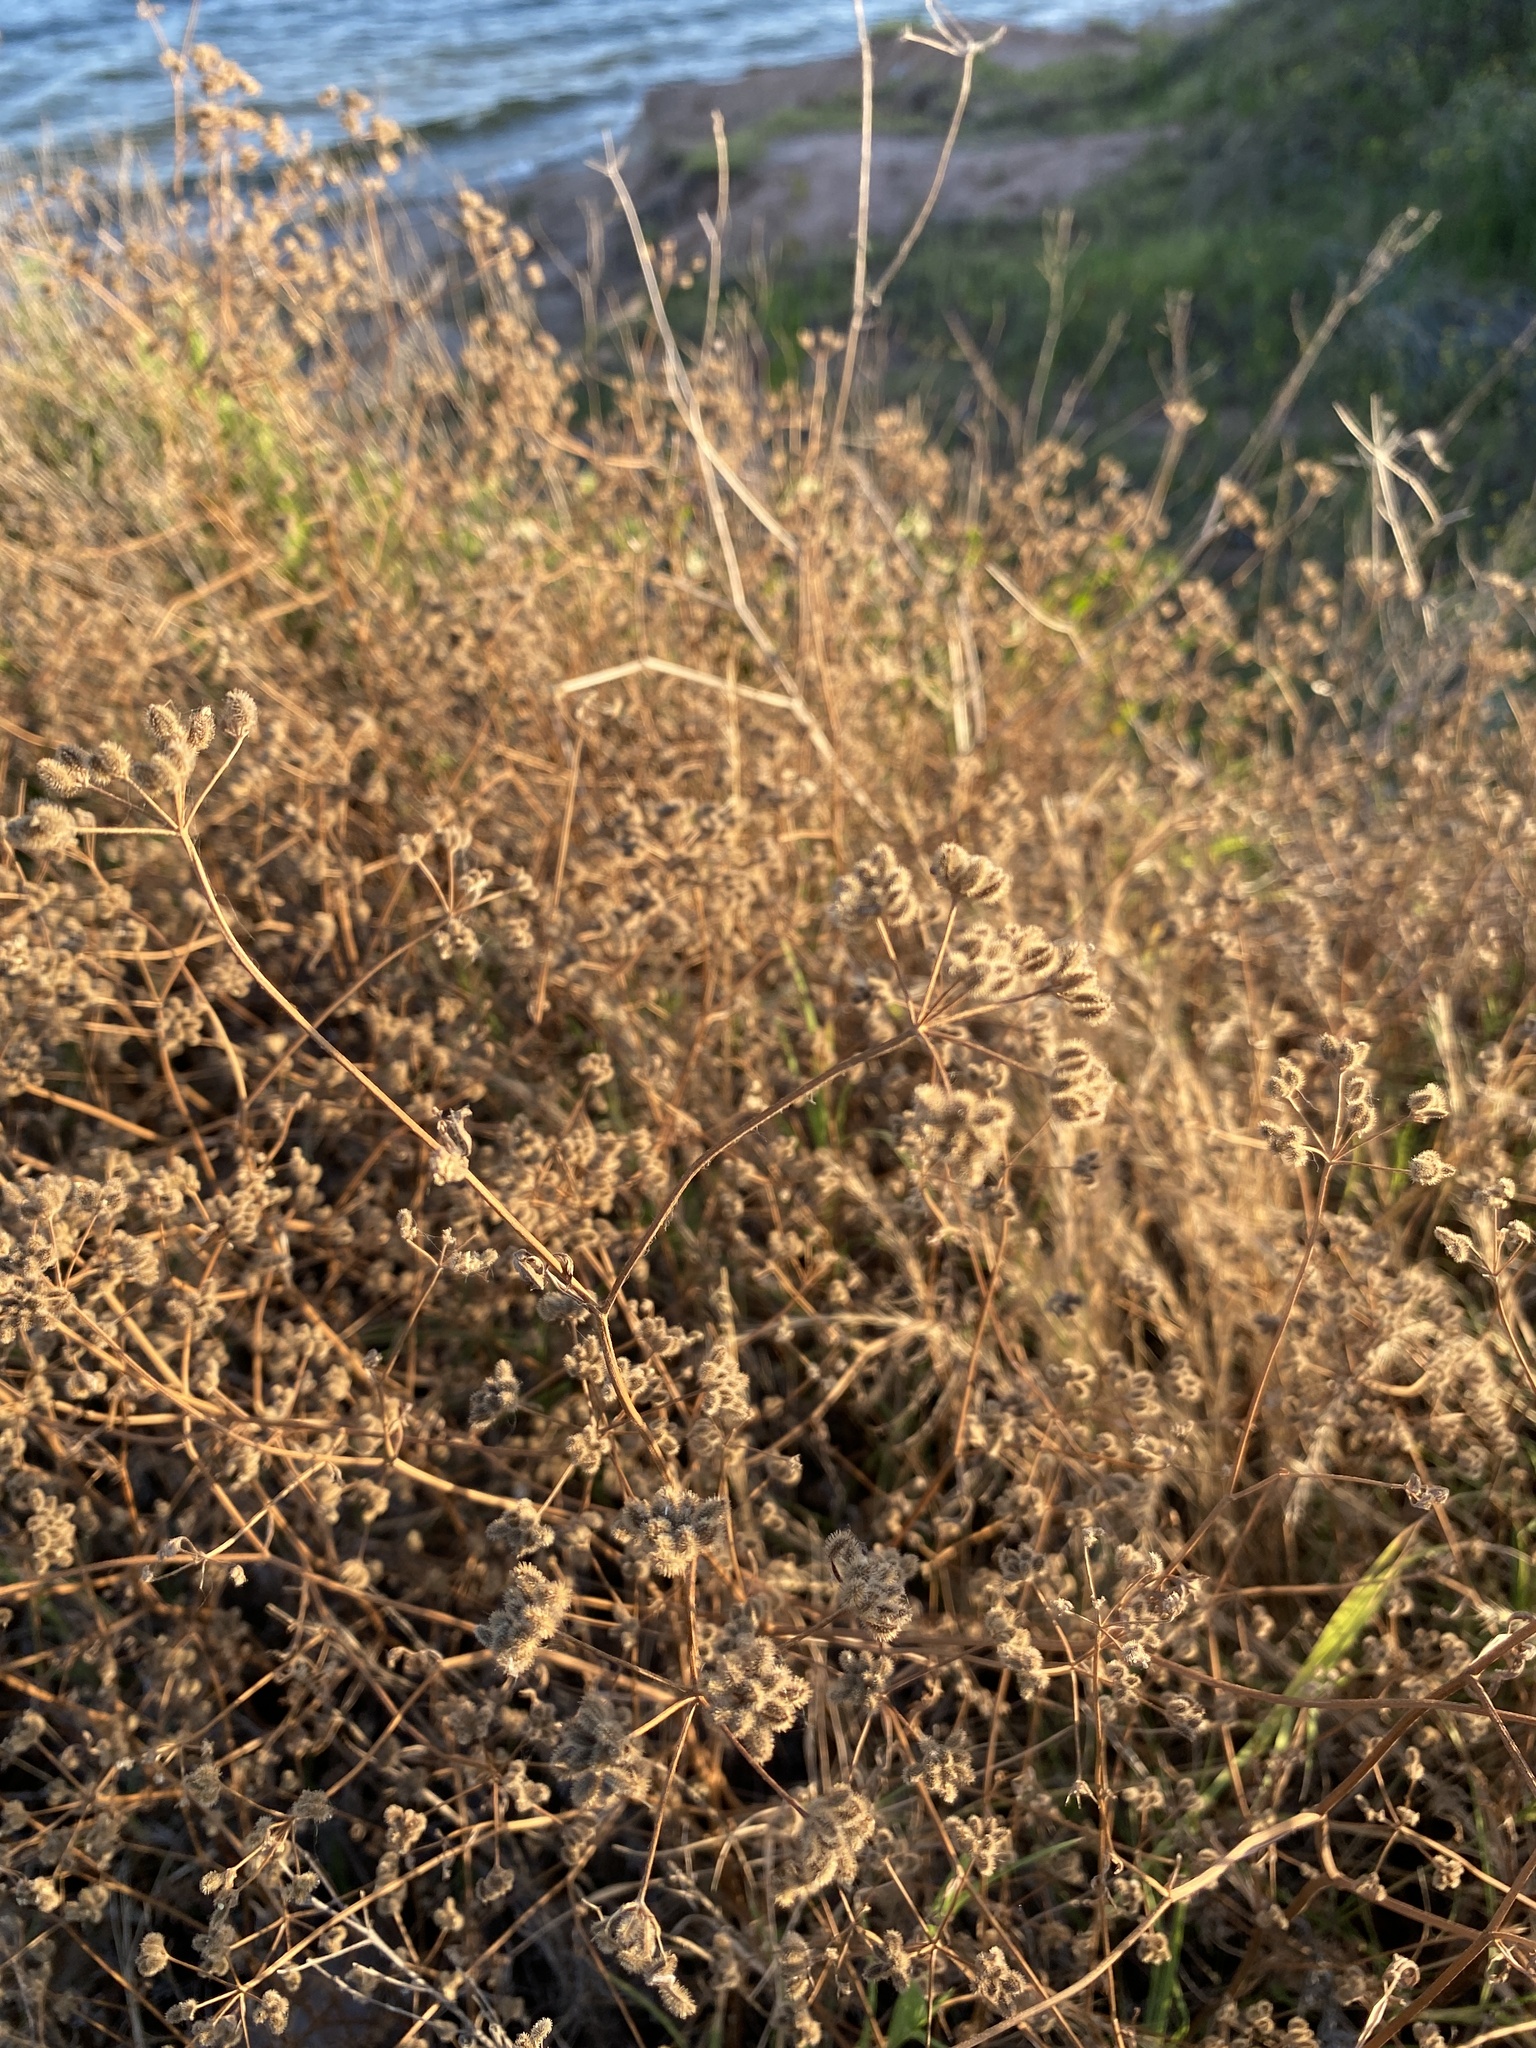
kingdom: Plantae
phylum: Tracheophyta
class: Magnoliopsida
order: Apiales
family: Apiaceae
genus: Torilis
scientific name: Torilis arvensis
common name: Spreading hedge-parsley
